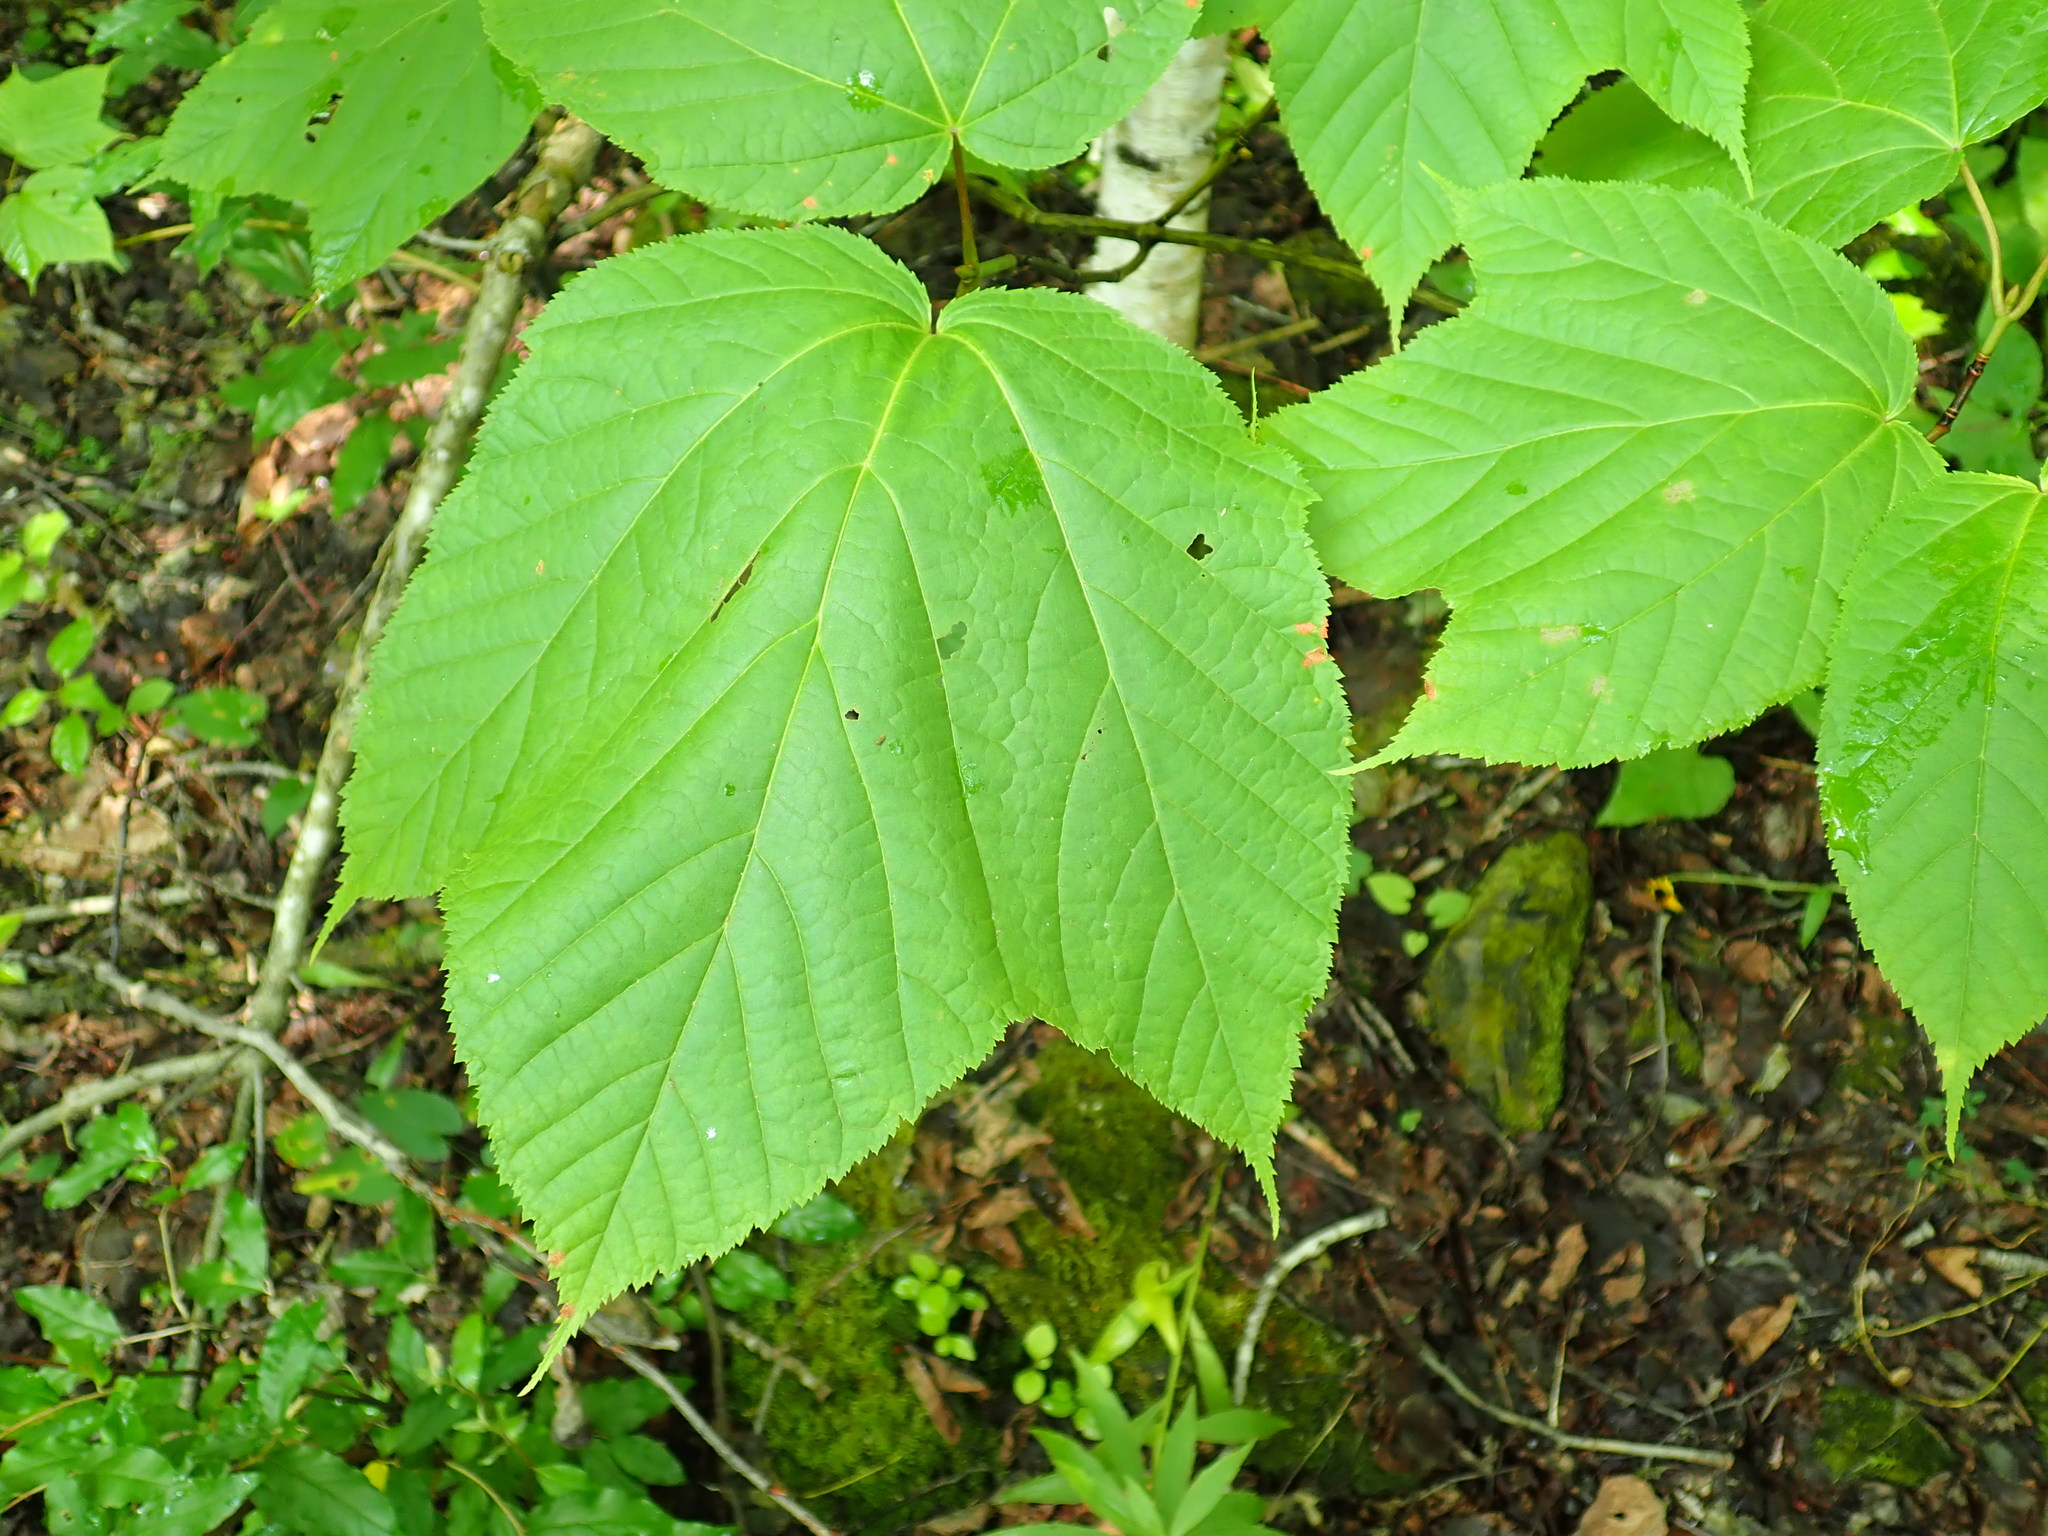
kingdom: Plantae
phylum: Tracheophyta
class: Magnoliopsida
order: Sapindales
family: Sapindaceae
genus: Acer
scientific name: Acer pensylvanicum
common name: Moosewood
